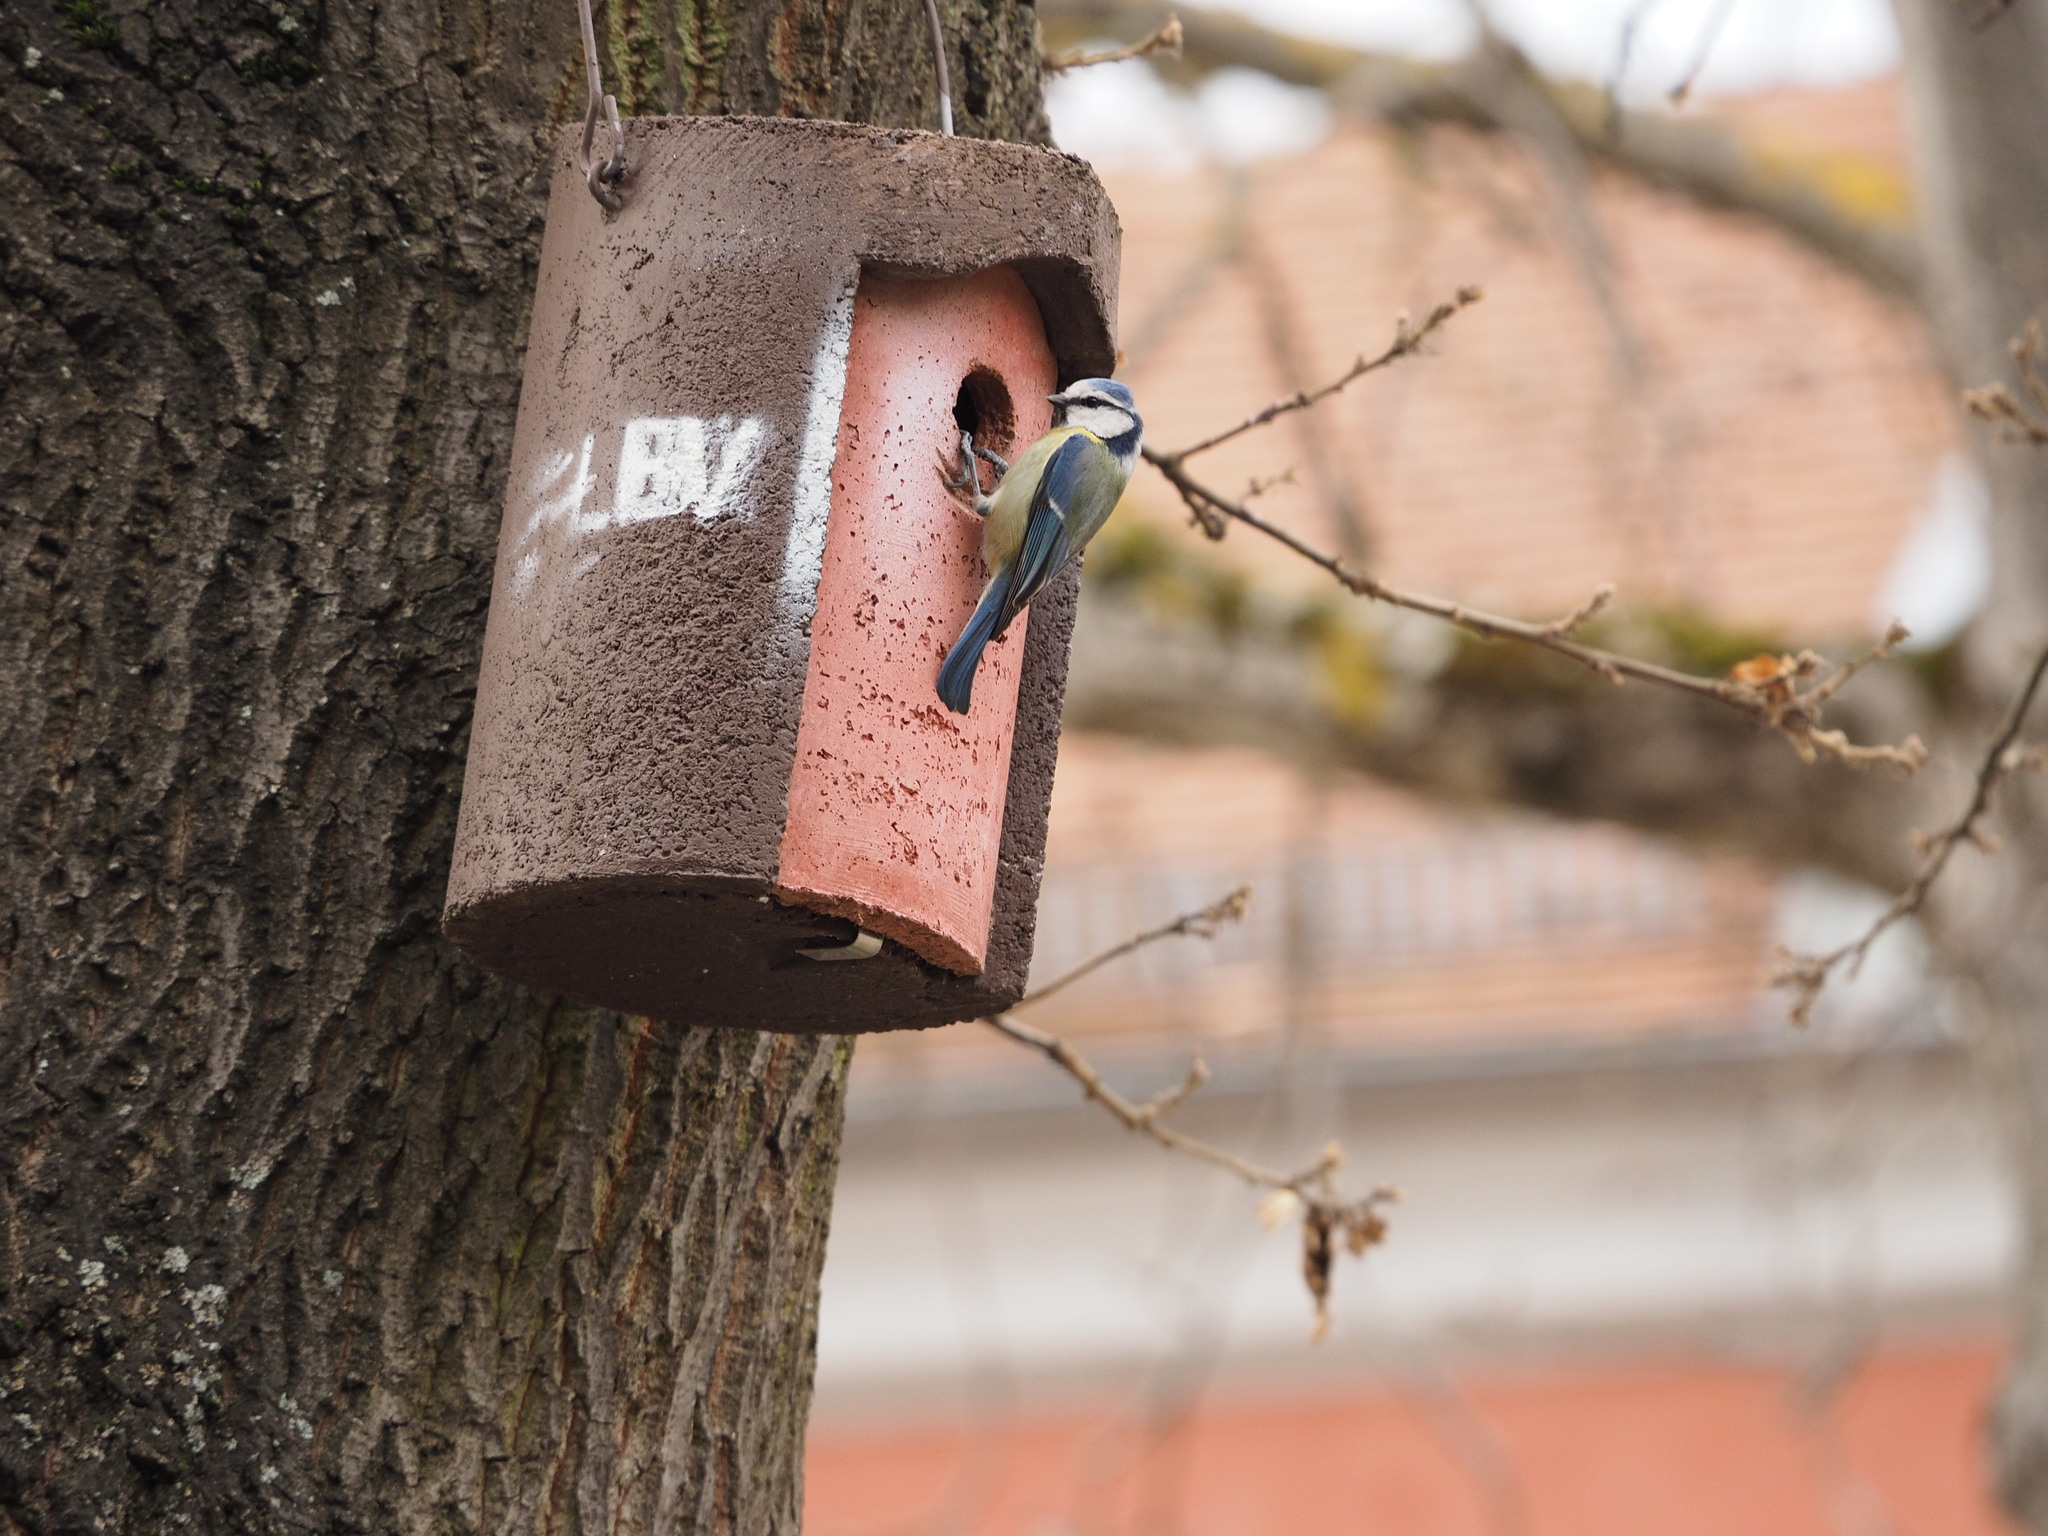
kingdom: Animalia
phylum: Chordata
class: Aves
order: Passeriformes
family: Paridae
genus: Cyanistes
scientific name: Cyanistes caeruleus
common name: Eurasian blue tit
